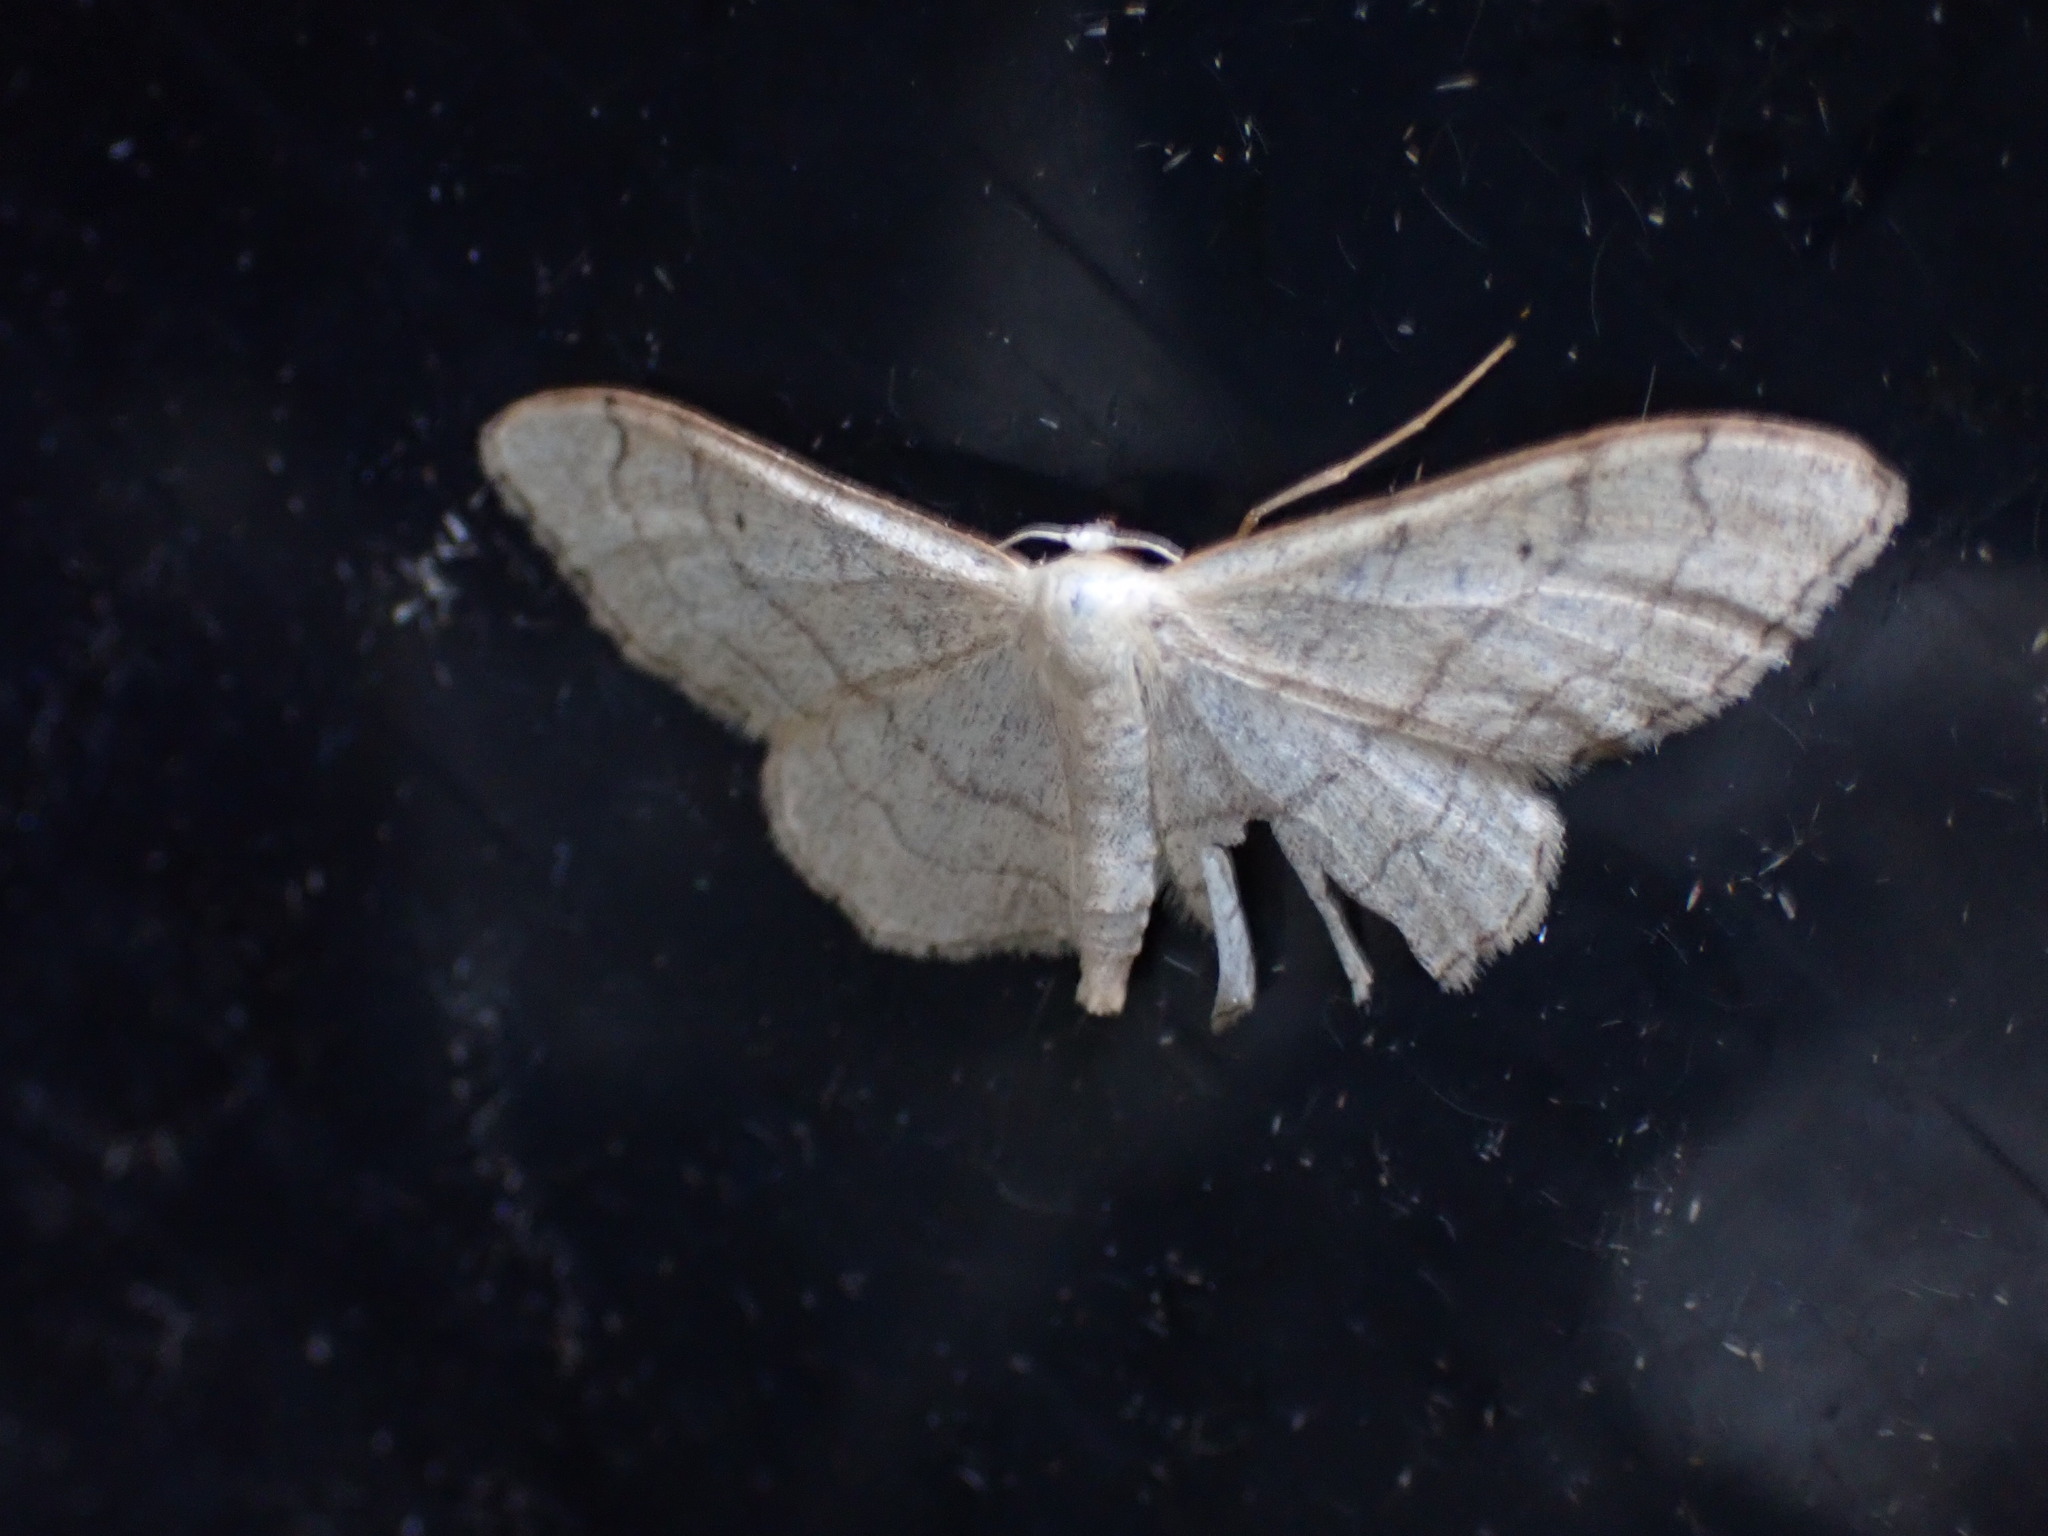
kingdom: Animalia
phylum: Arthropoda
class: Insecta
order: Lepidoptera
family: Geometridae
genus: Idaea
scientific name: Idaea aversata
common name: Riband wave
